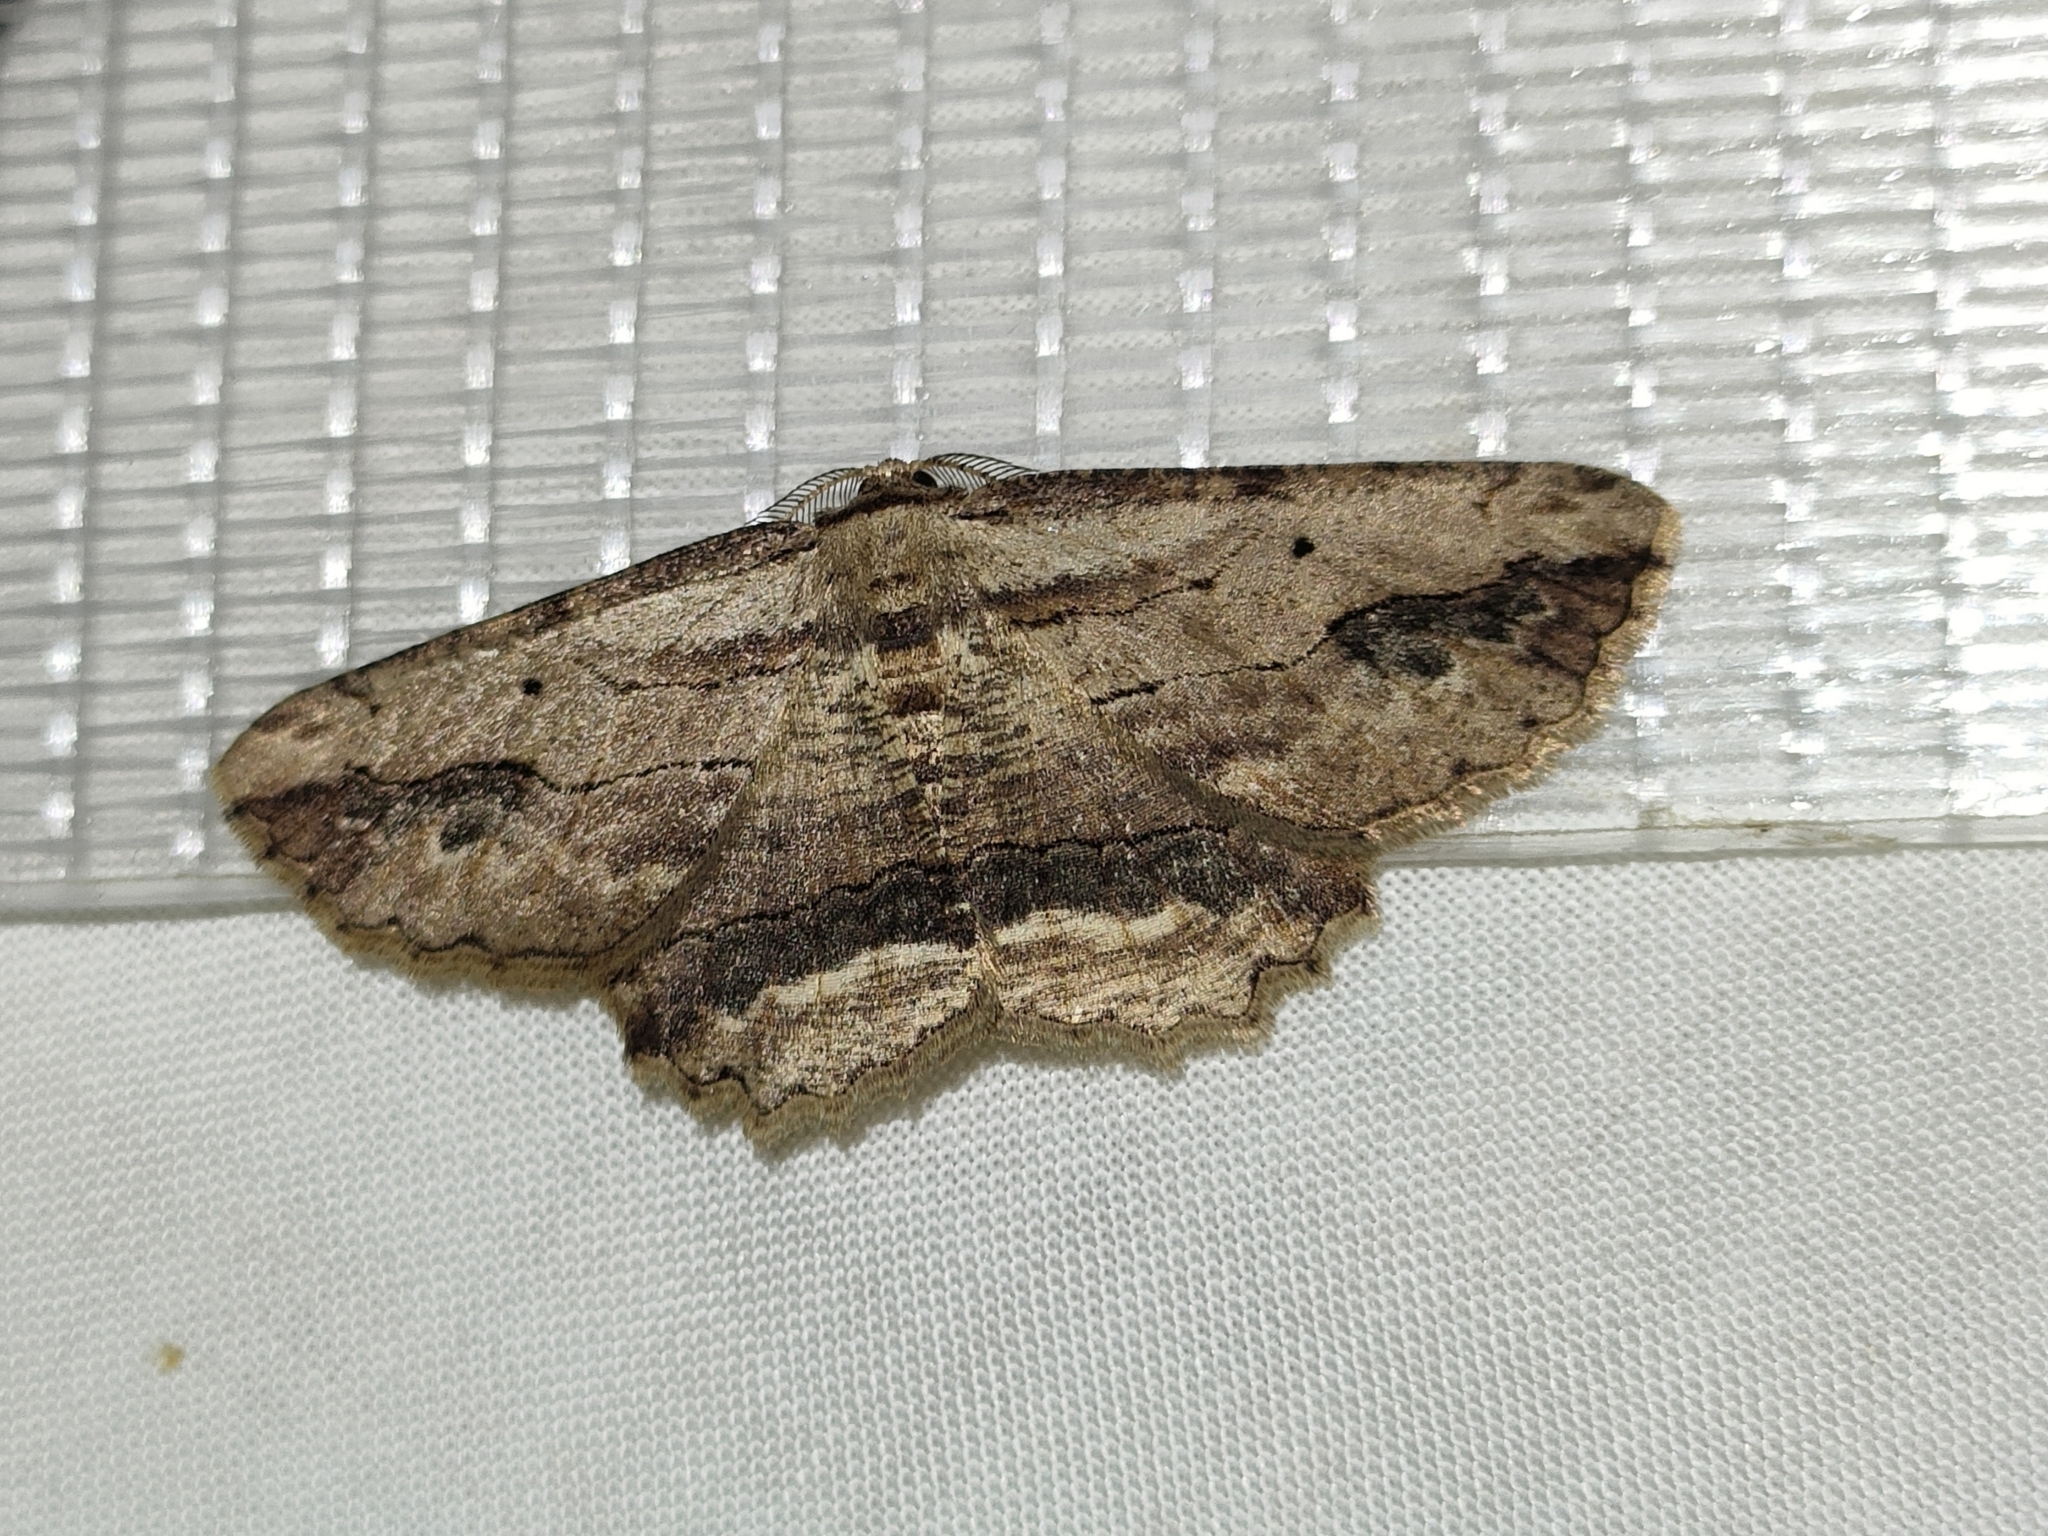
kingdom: Animalia
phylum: Arthropoda
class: Insecta
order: Lepidoptera
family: Geometridae
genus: Menophra
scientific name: Menophra abruptaria
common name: Waved umber
